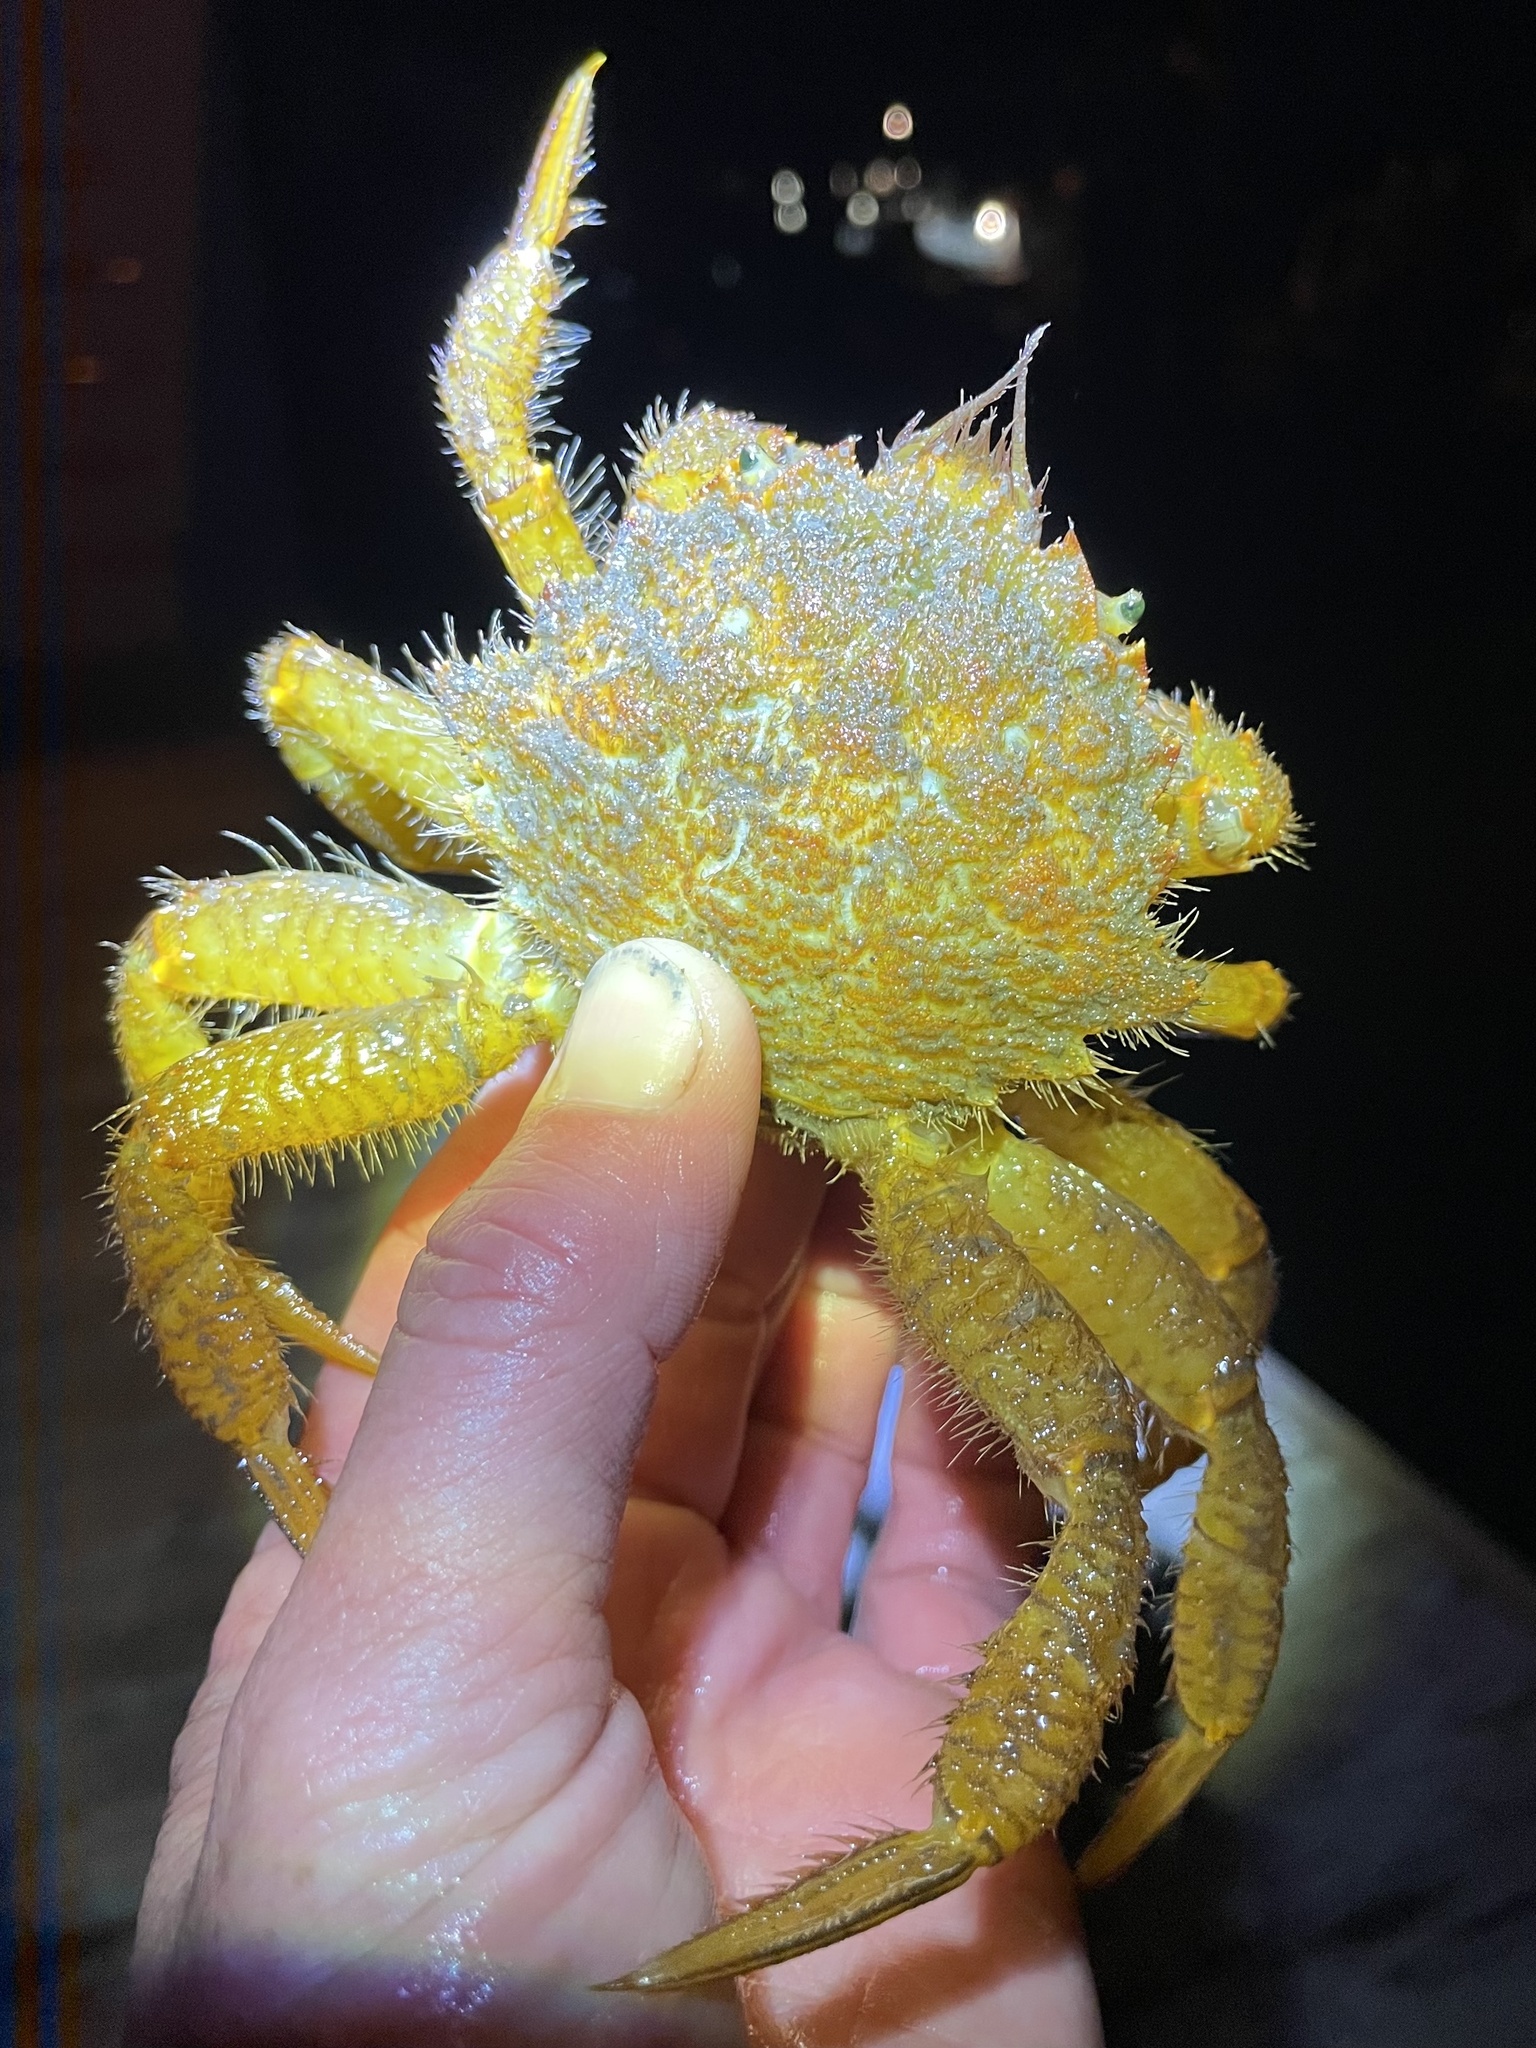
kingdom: Animalia
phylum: Arthropoda
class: Malacostraca
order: Decapoda
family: Cheiragonidae
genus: Telmessus
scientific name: Telmessus cheiragonus
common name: Helmet crab
